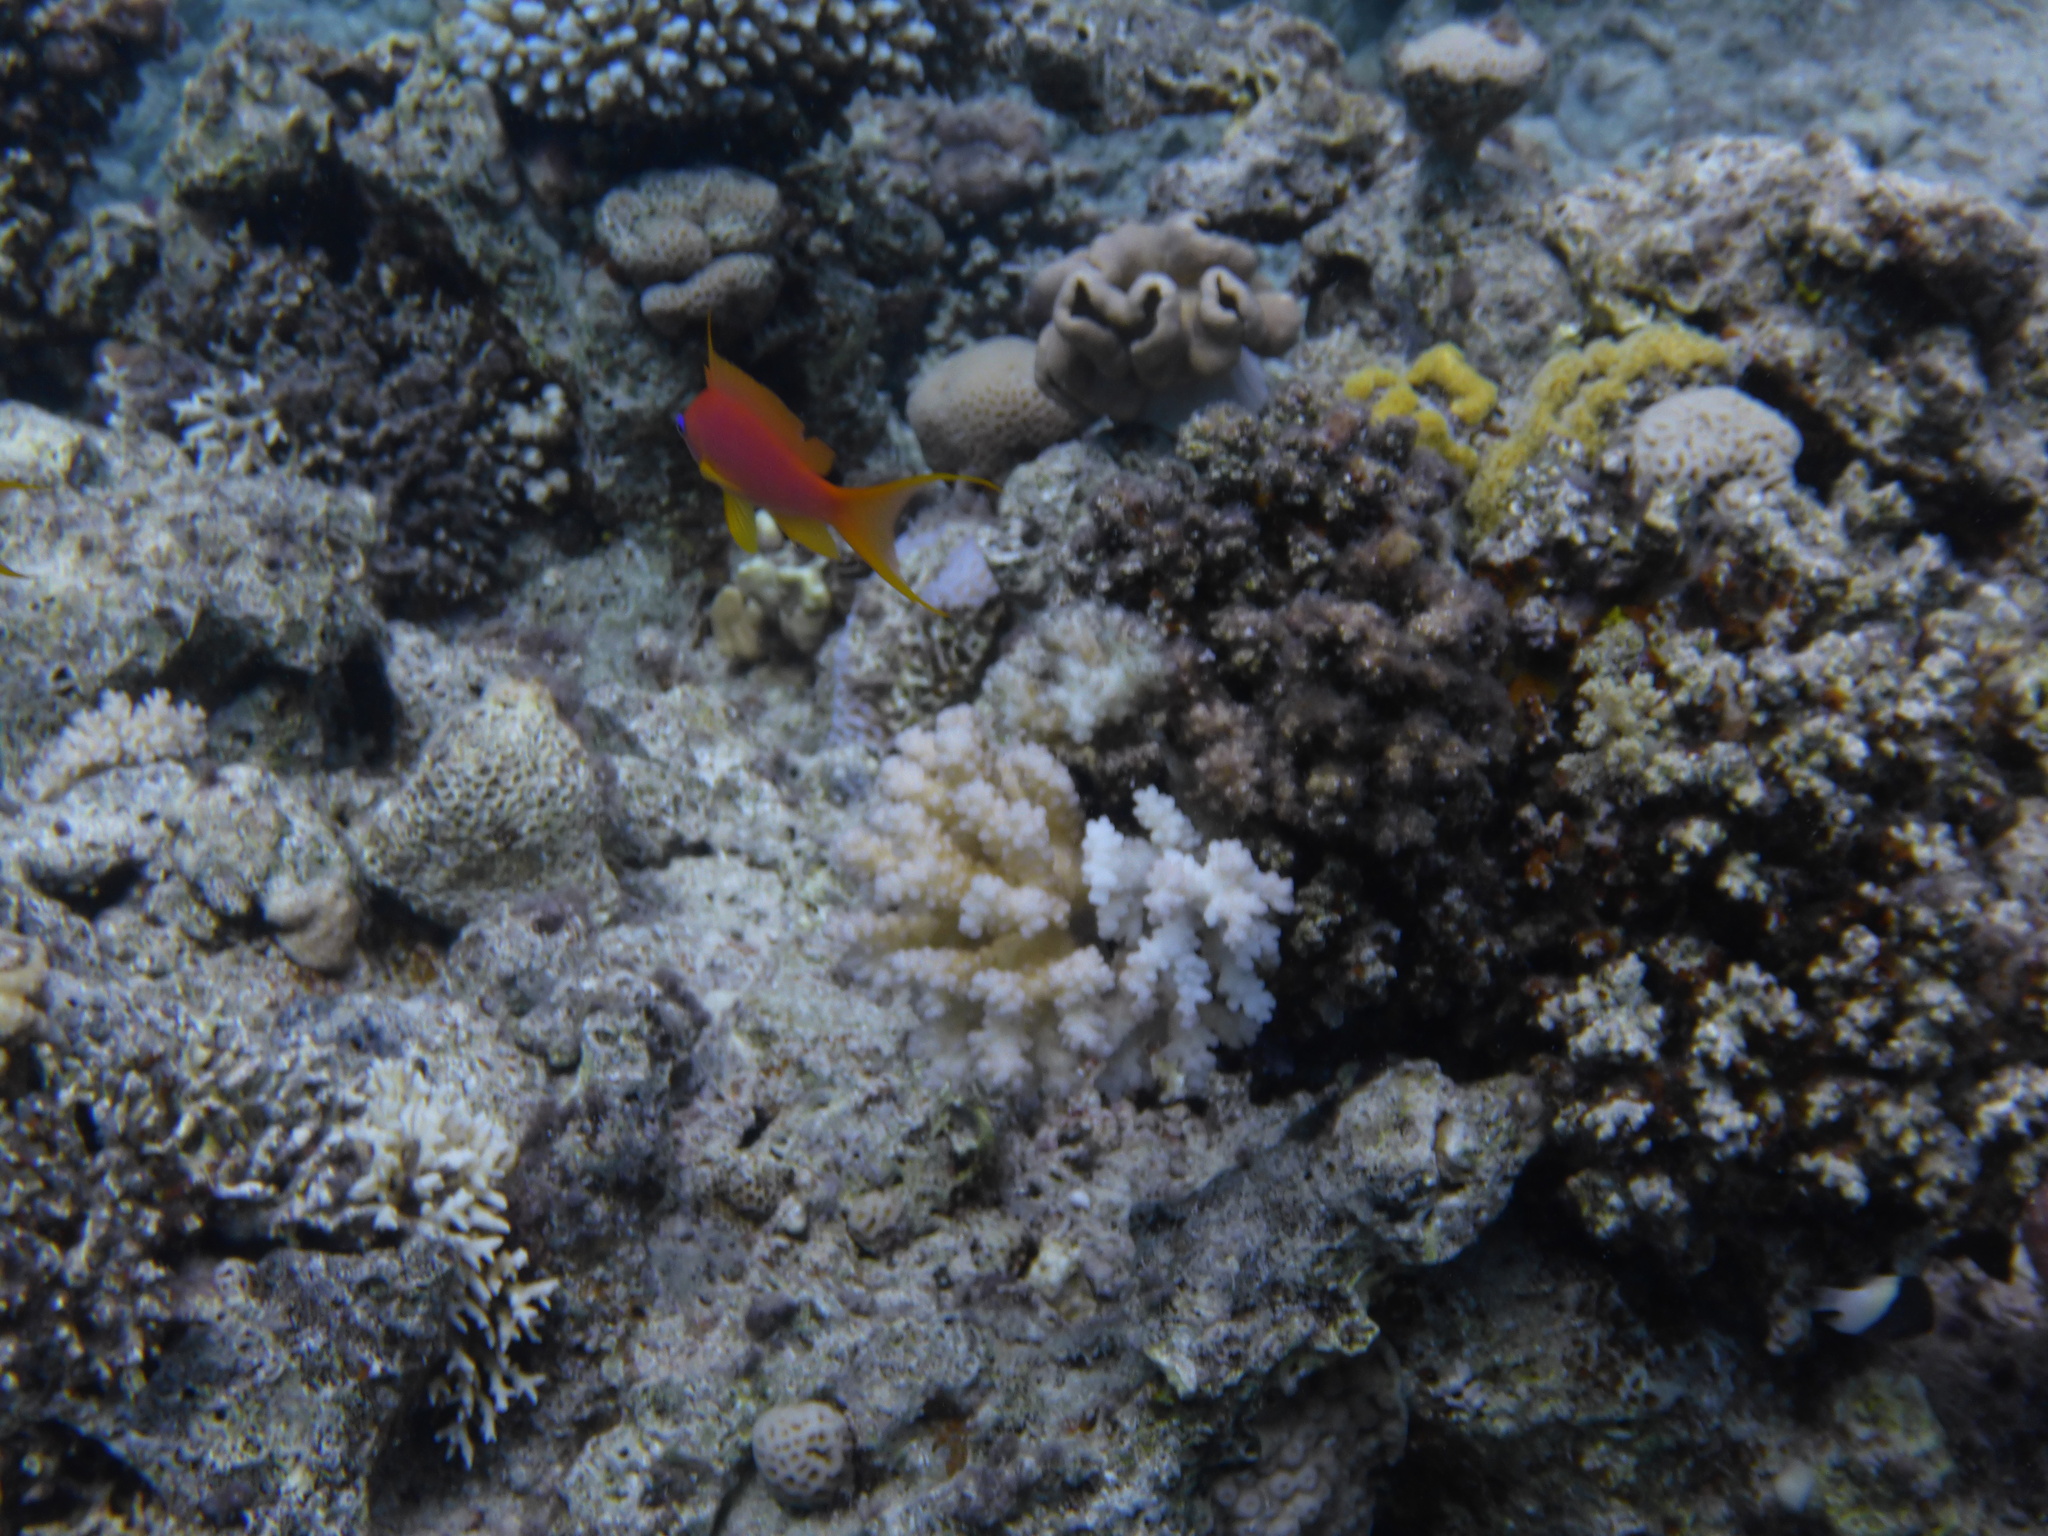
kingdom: Animalia
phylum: Chordata
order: Perciformes
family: Serranidae
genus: Pseudanthias
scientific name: Pseudanthias squamipinnis
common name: Scalefin anthias
